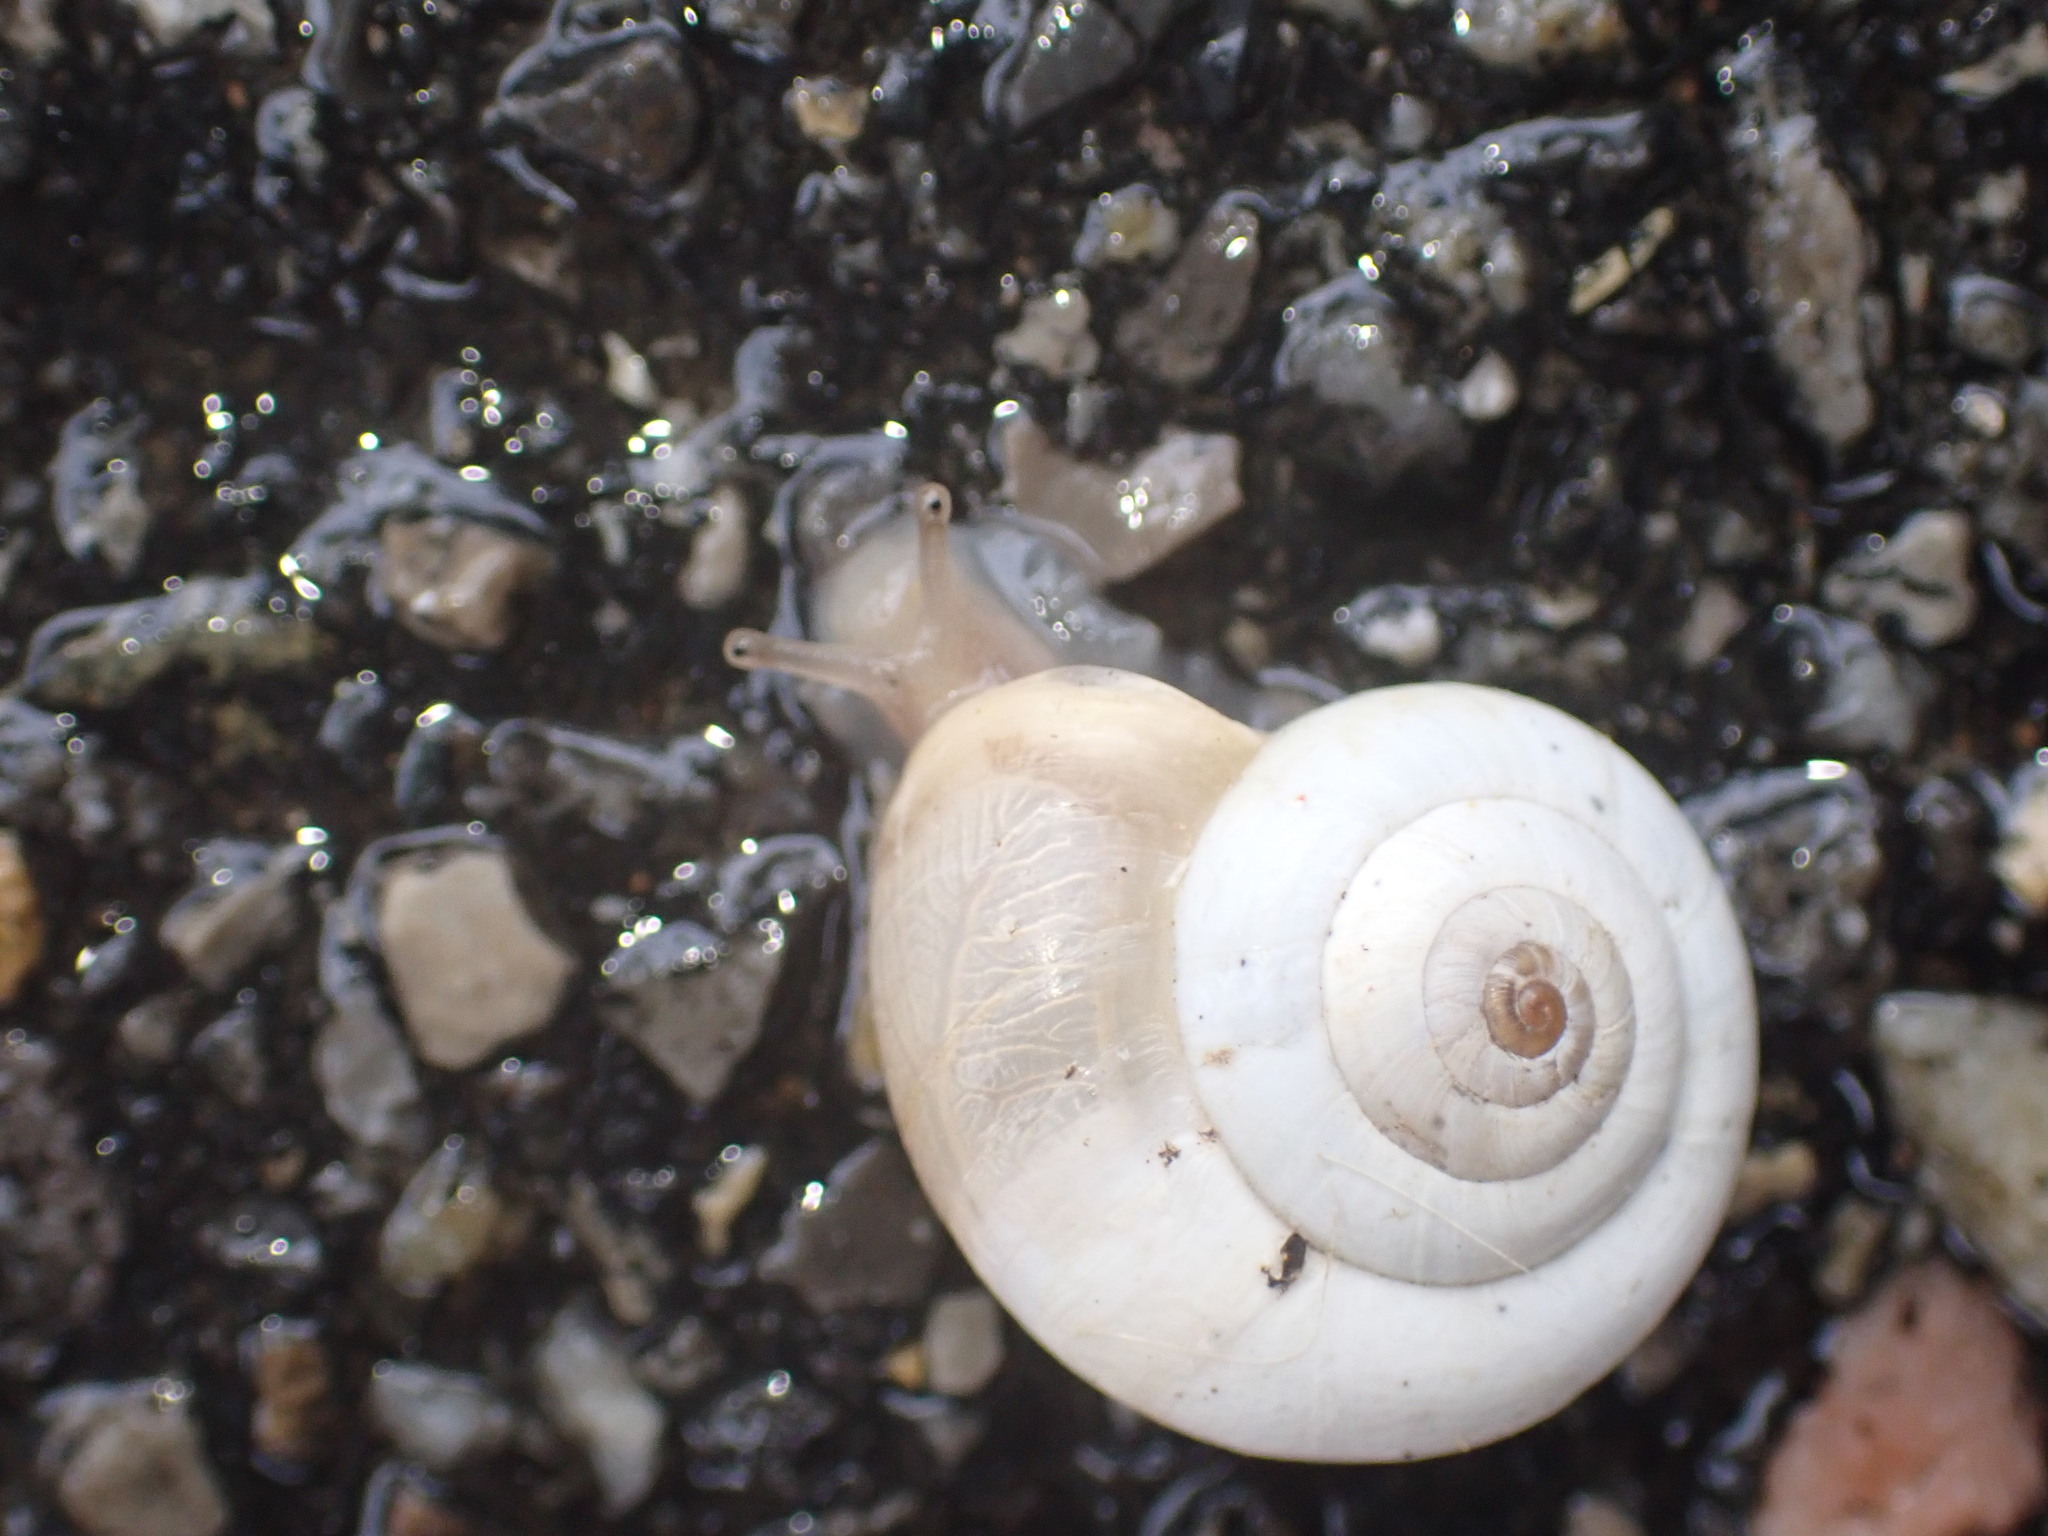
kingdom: Animalia
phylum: Mollusca
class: Gastropoda
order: Stylommatophora
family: Geomitridae
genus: Xeropicta
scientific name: Xeropicta derbentina
